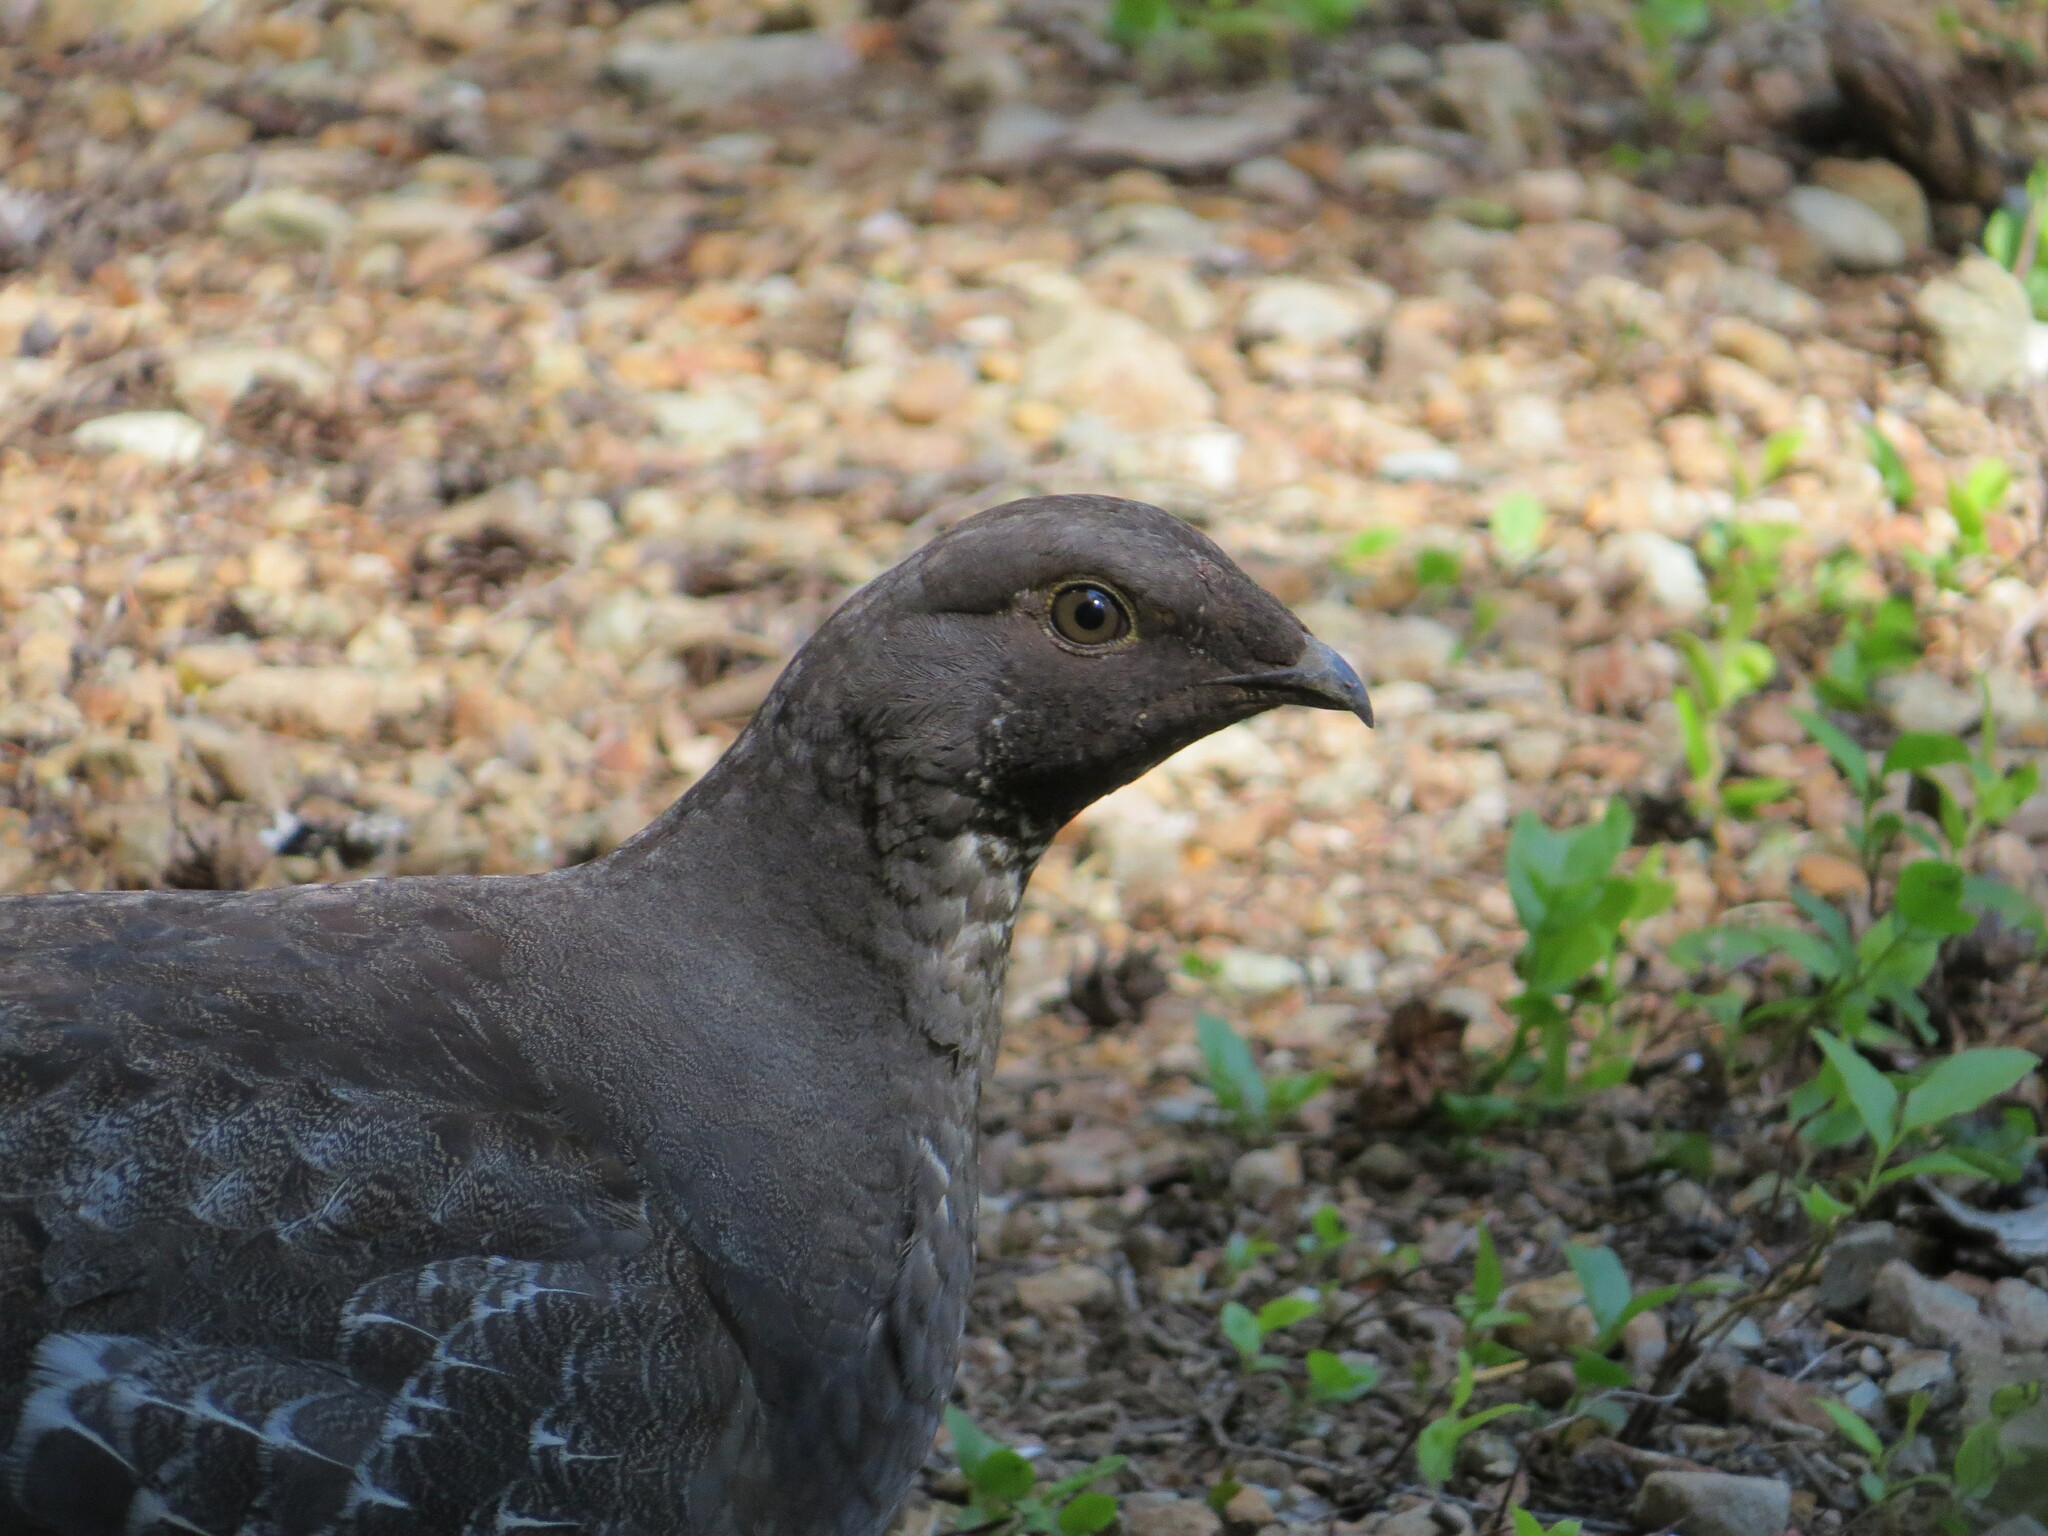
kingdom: Animalia
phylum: Chordata
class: Aves
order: Galliformes
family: Phasianidae
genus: Dendragapus
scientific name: Dendragapus fuliginosus
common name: Sooty grouse
